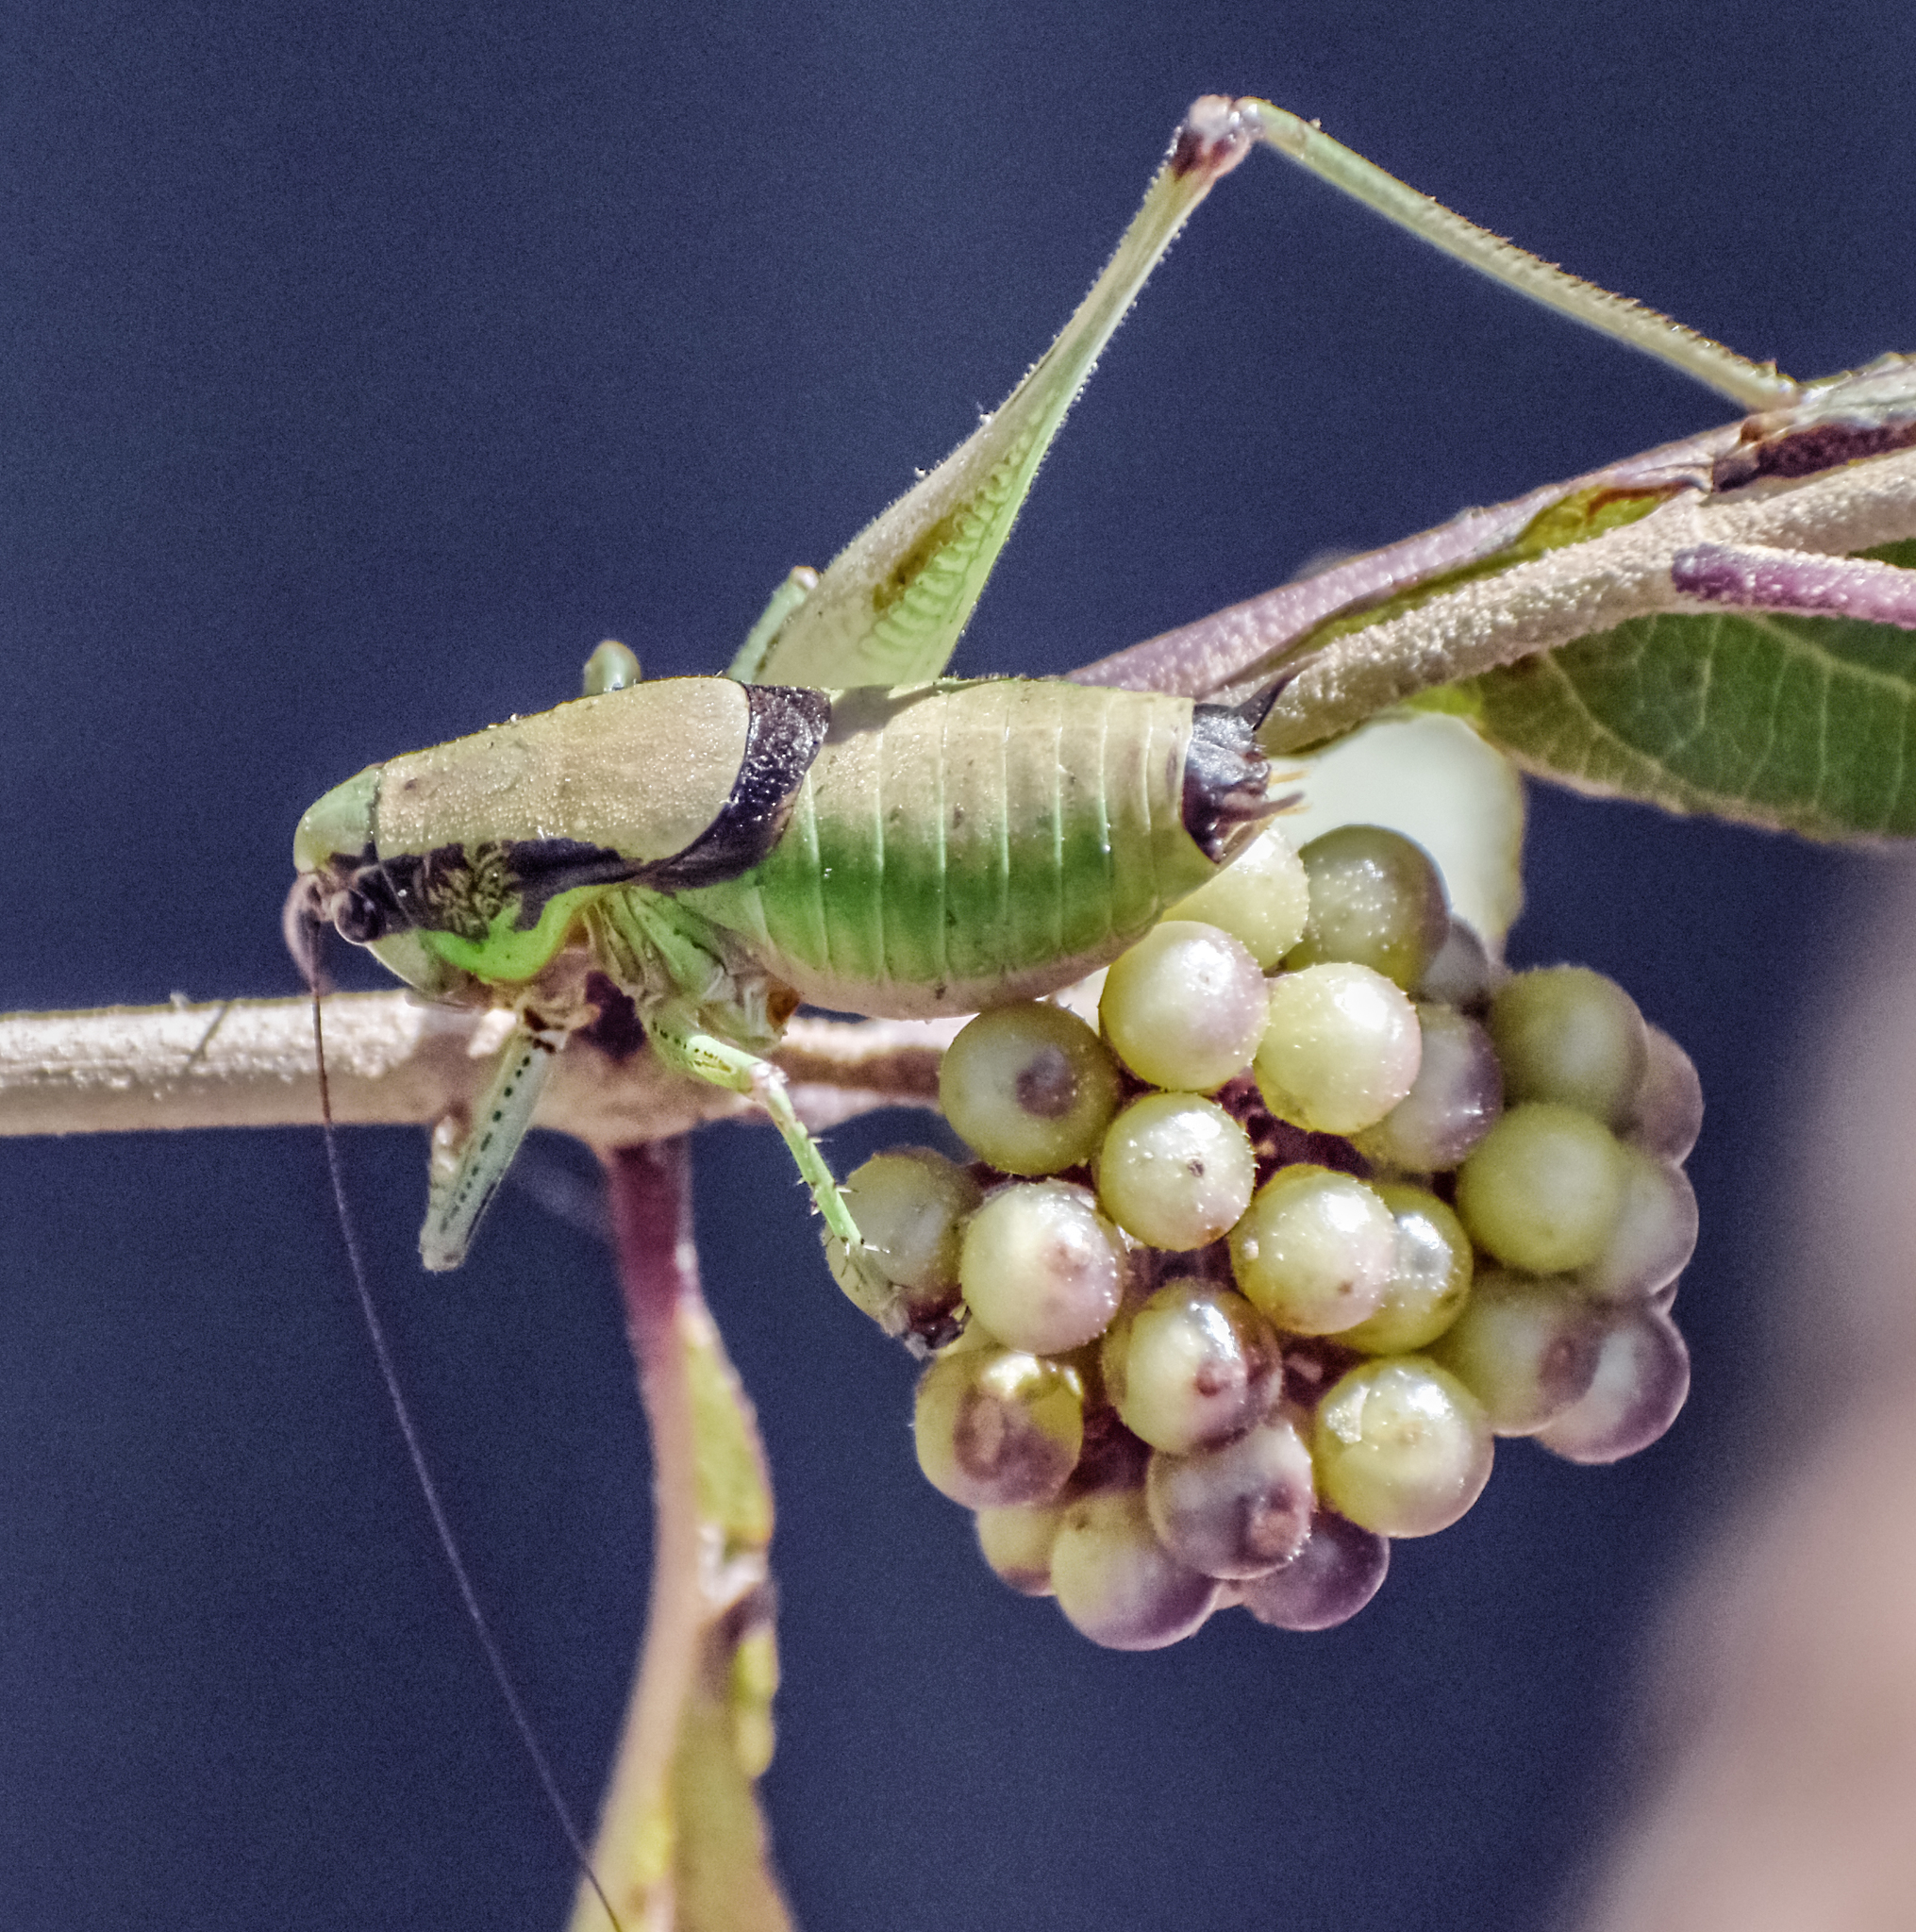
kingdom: Animalia
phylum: Arthropoda
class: Insecta
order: Orthoptera
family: Tettigoniidae
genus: Eupholidoptera
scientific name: Eupholidoptera chabrieri
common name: Chabrier's marbled bush-cricket
